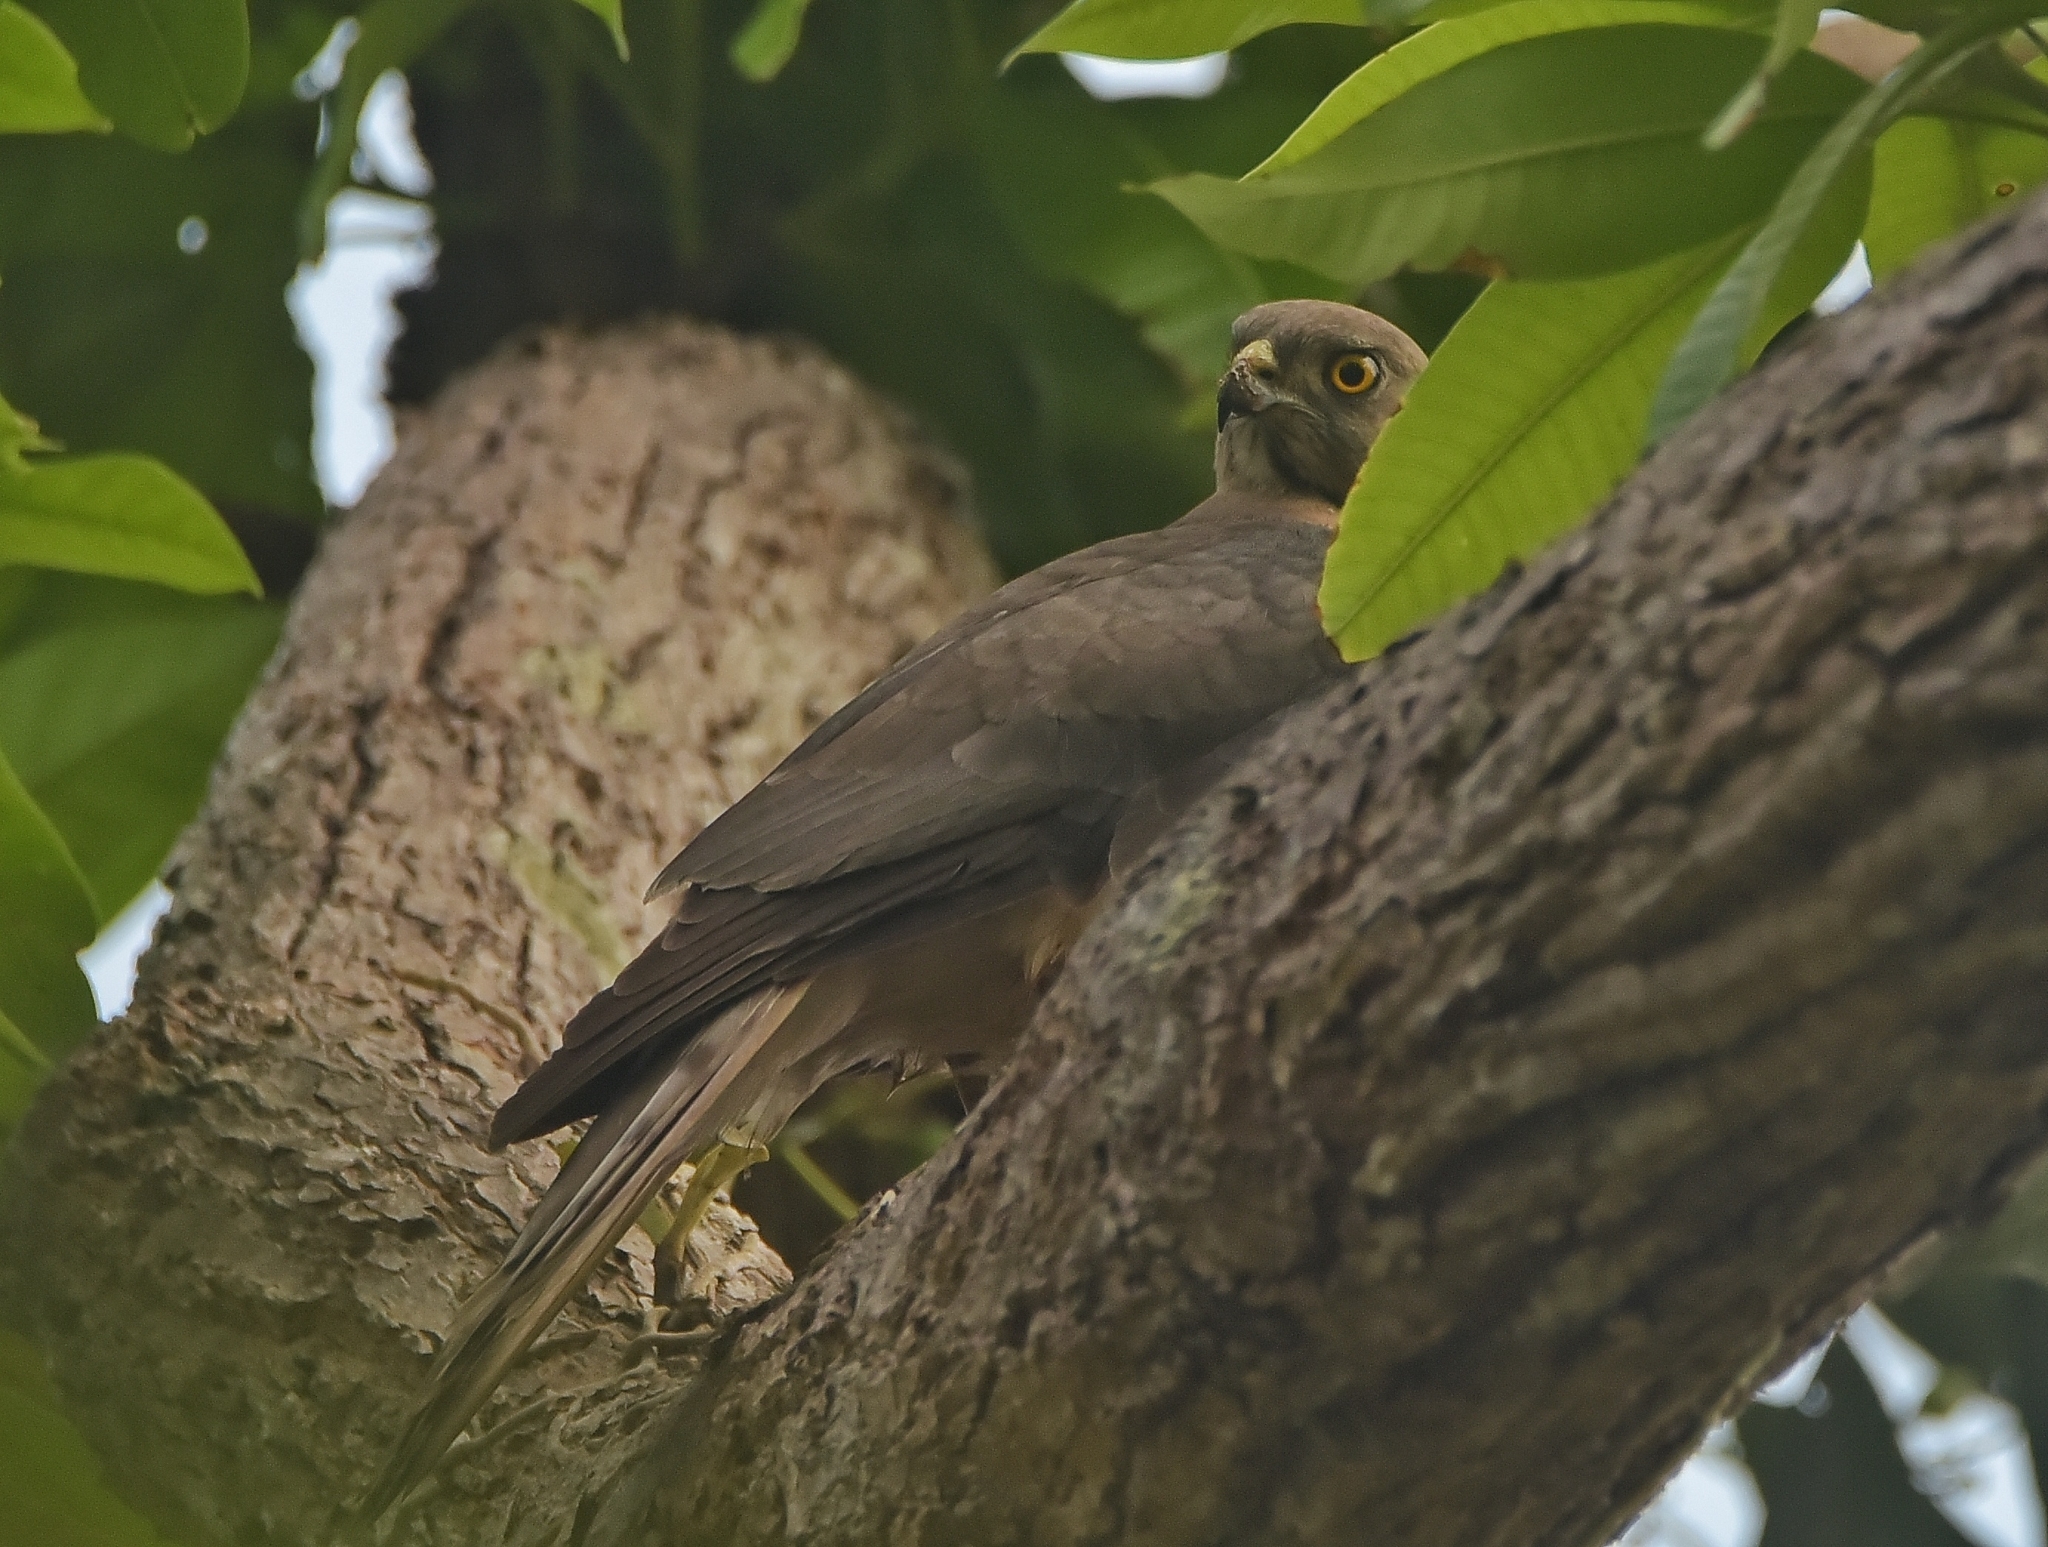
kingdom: Animalia
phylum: Chordata
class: Aves
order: Accipitriformes
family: Accipitridae
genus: Accipiter
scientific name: Accipiter badius
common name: Shikra
